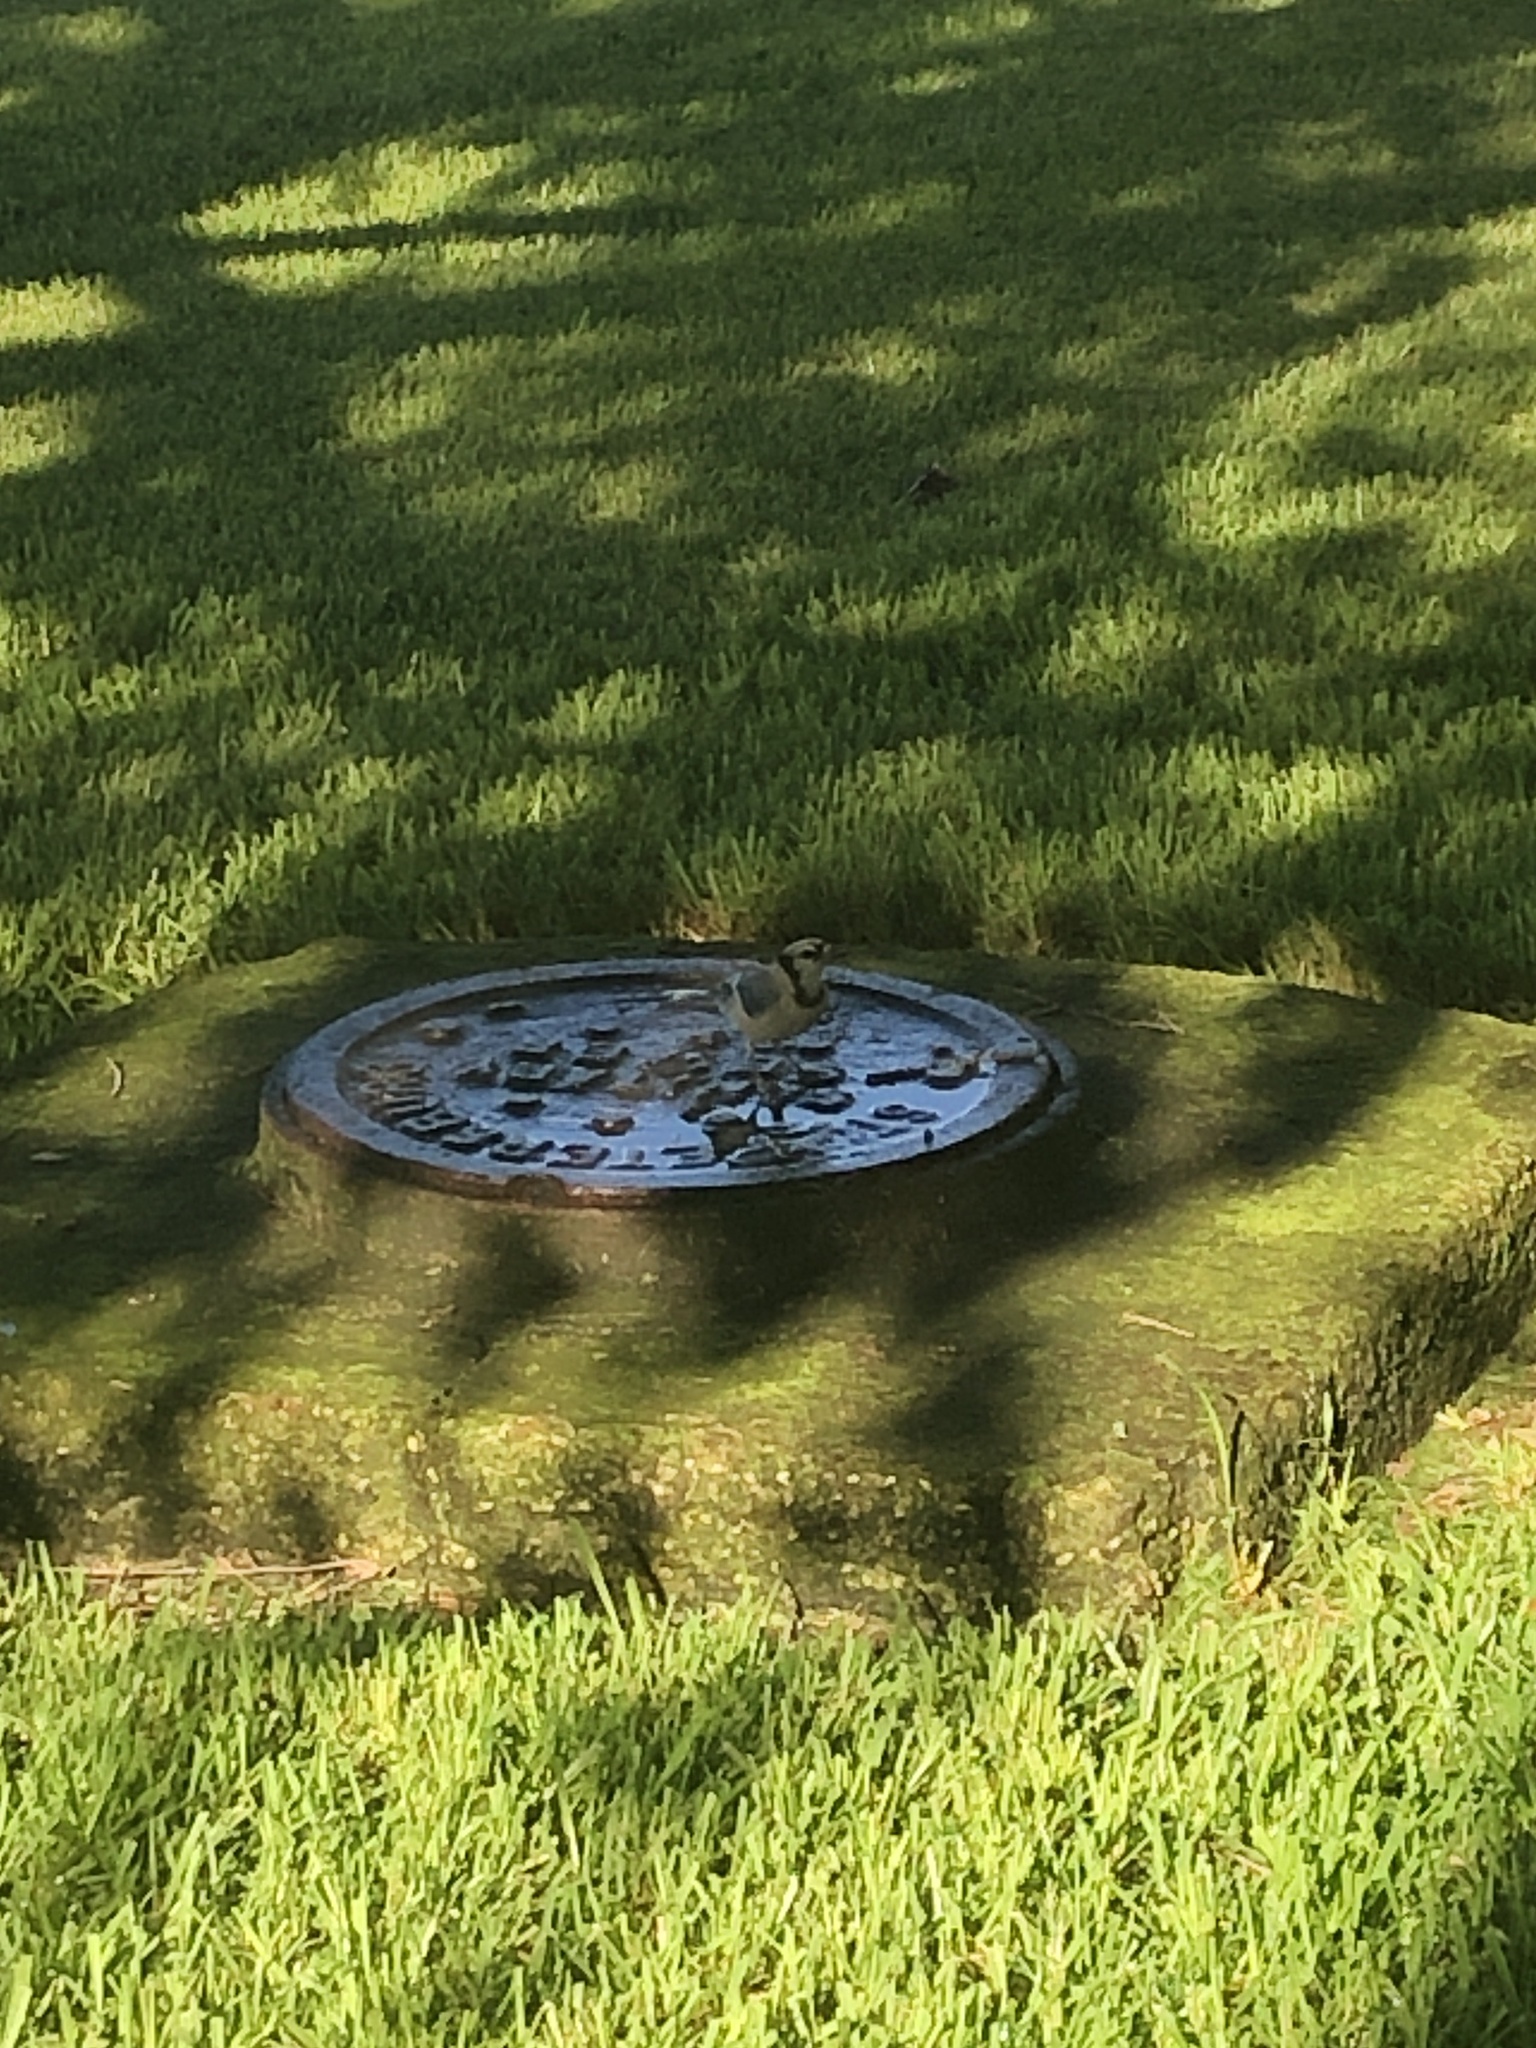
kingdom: Animalia
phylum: Chordata
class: Aves
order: Passeriformes
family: Corvidae
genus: Cyanocitta
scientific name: Cyanocitta cristata
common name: Blue jay
